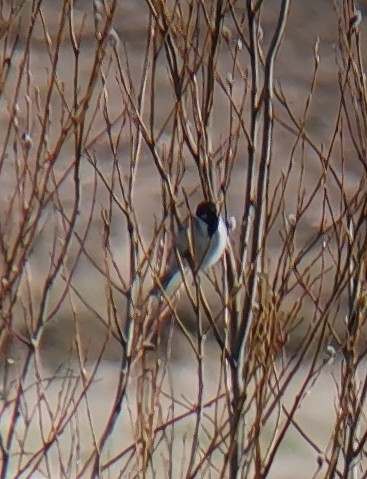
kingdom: Animalia
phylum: Chordata
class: Aves
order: Passeriformes
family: Emberizidae
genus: Emberiza
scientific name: Emberiza schoeniclus
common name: Reed bunting
